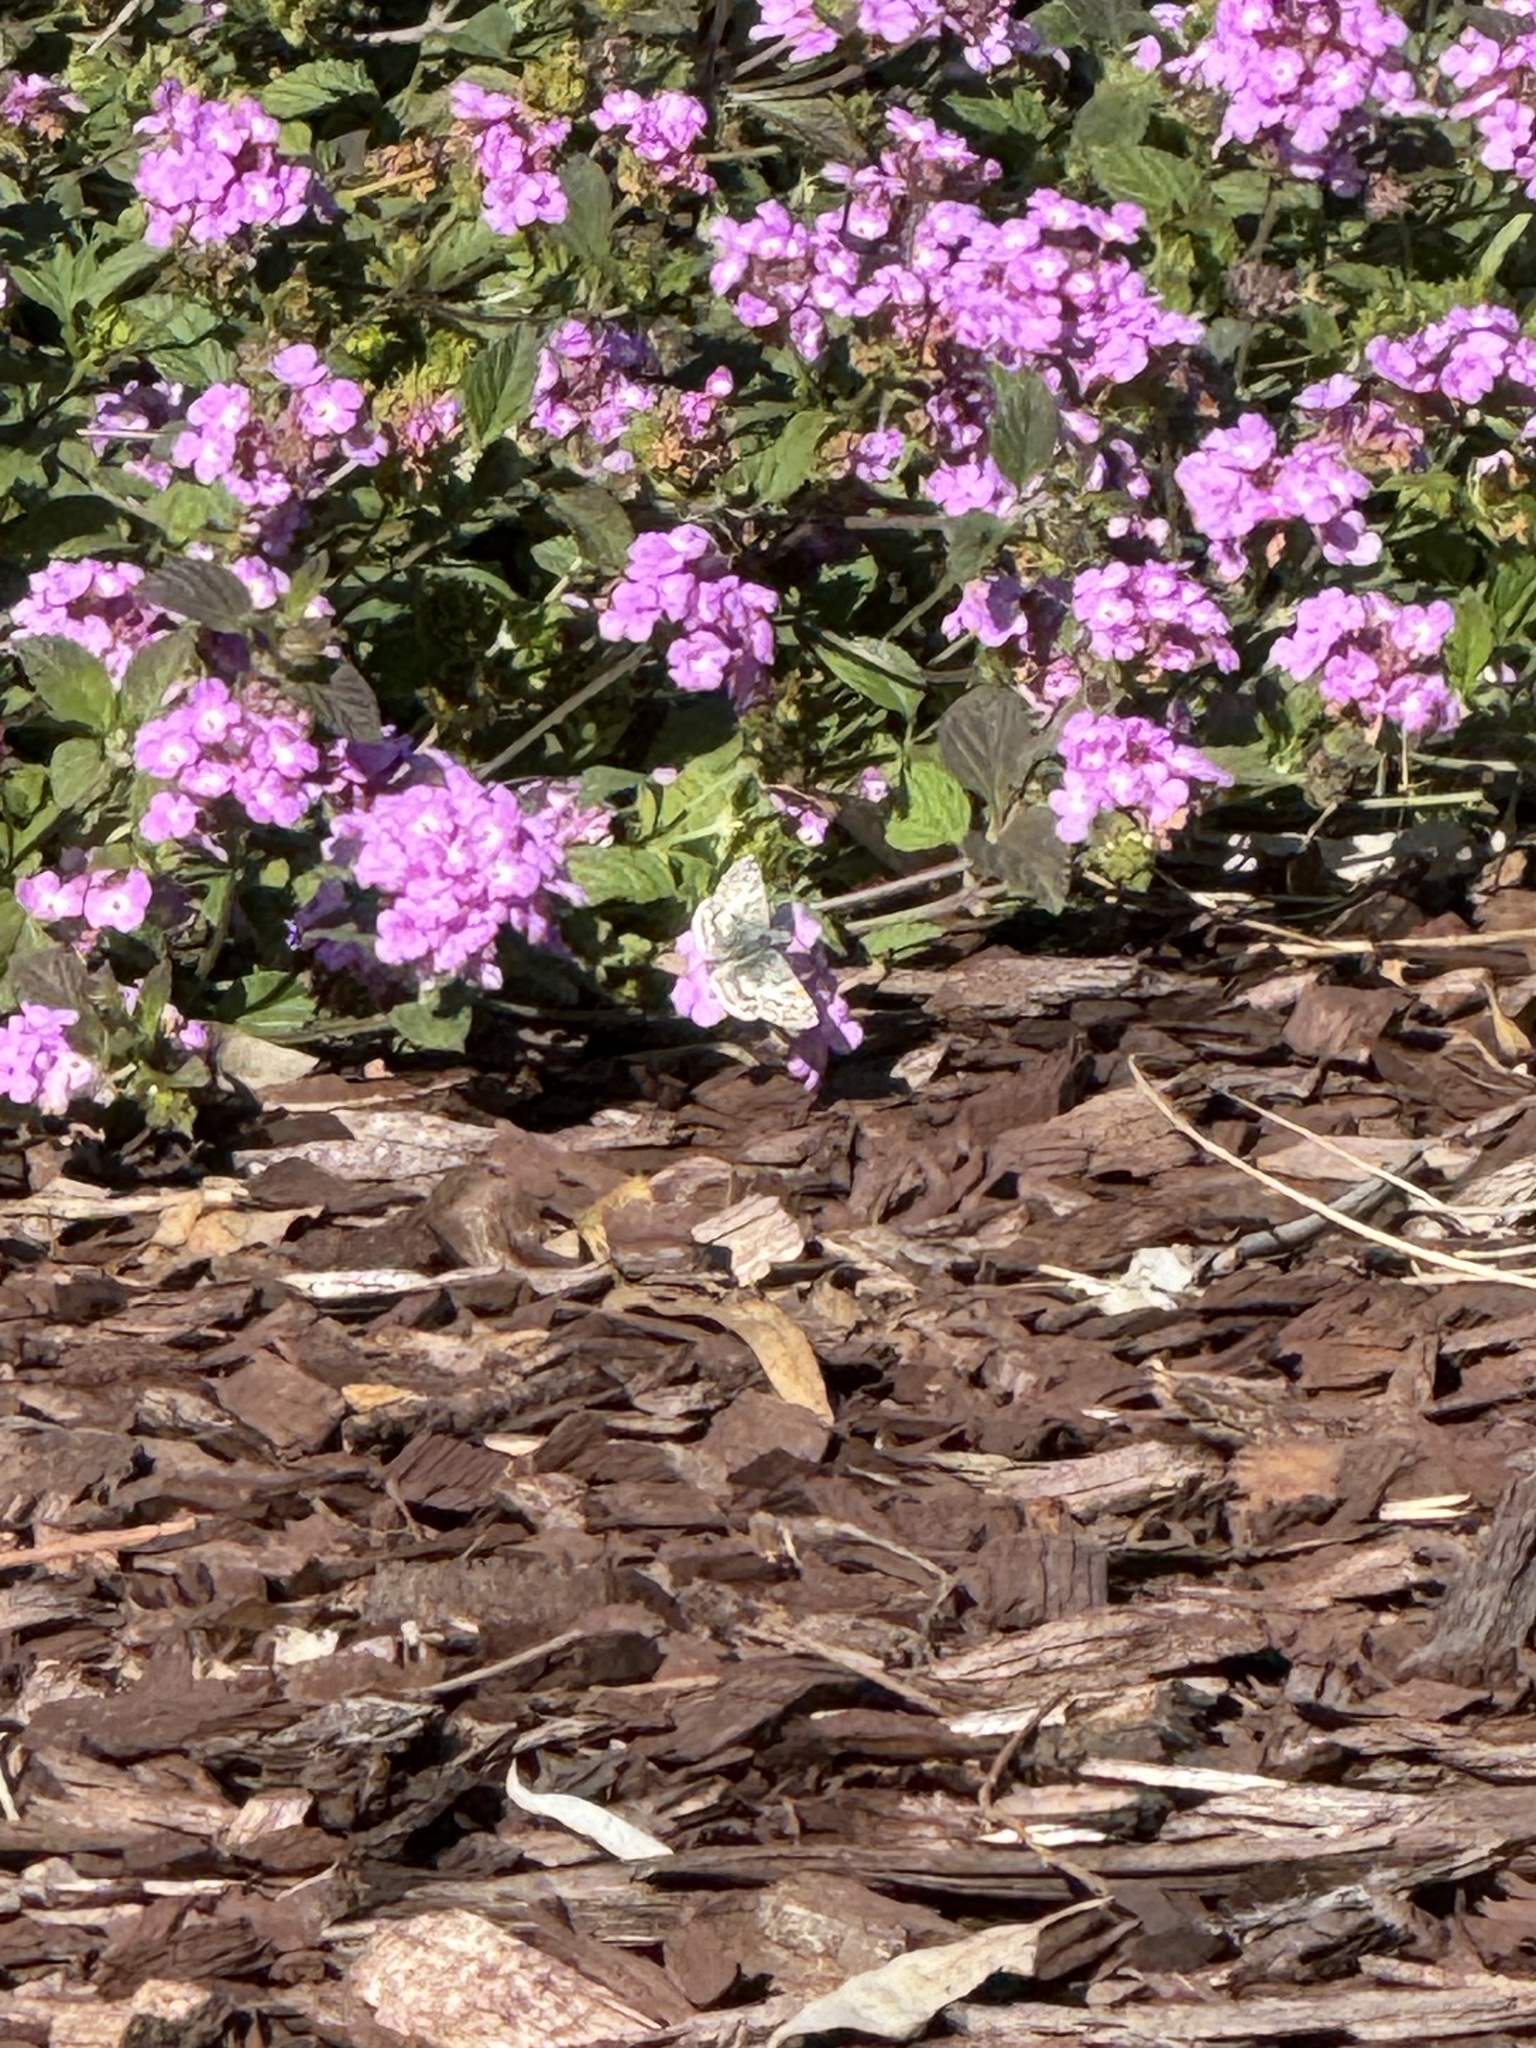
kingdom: Animalia
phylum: Arthropoda
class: Insecta
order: Lepidoptera
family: Hesperiidae
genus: Burnsius
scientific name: Burnsius albezens
